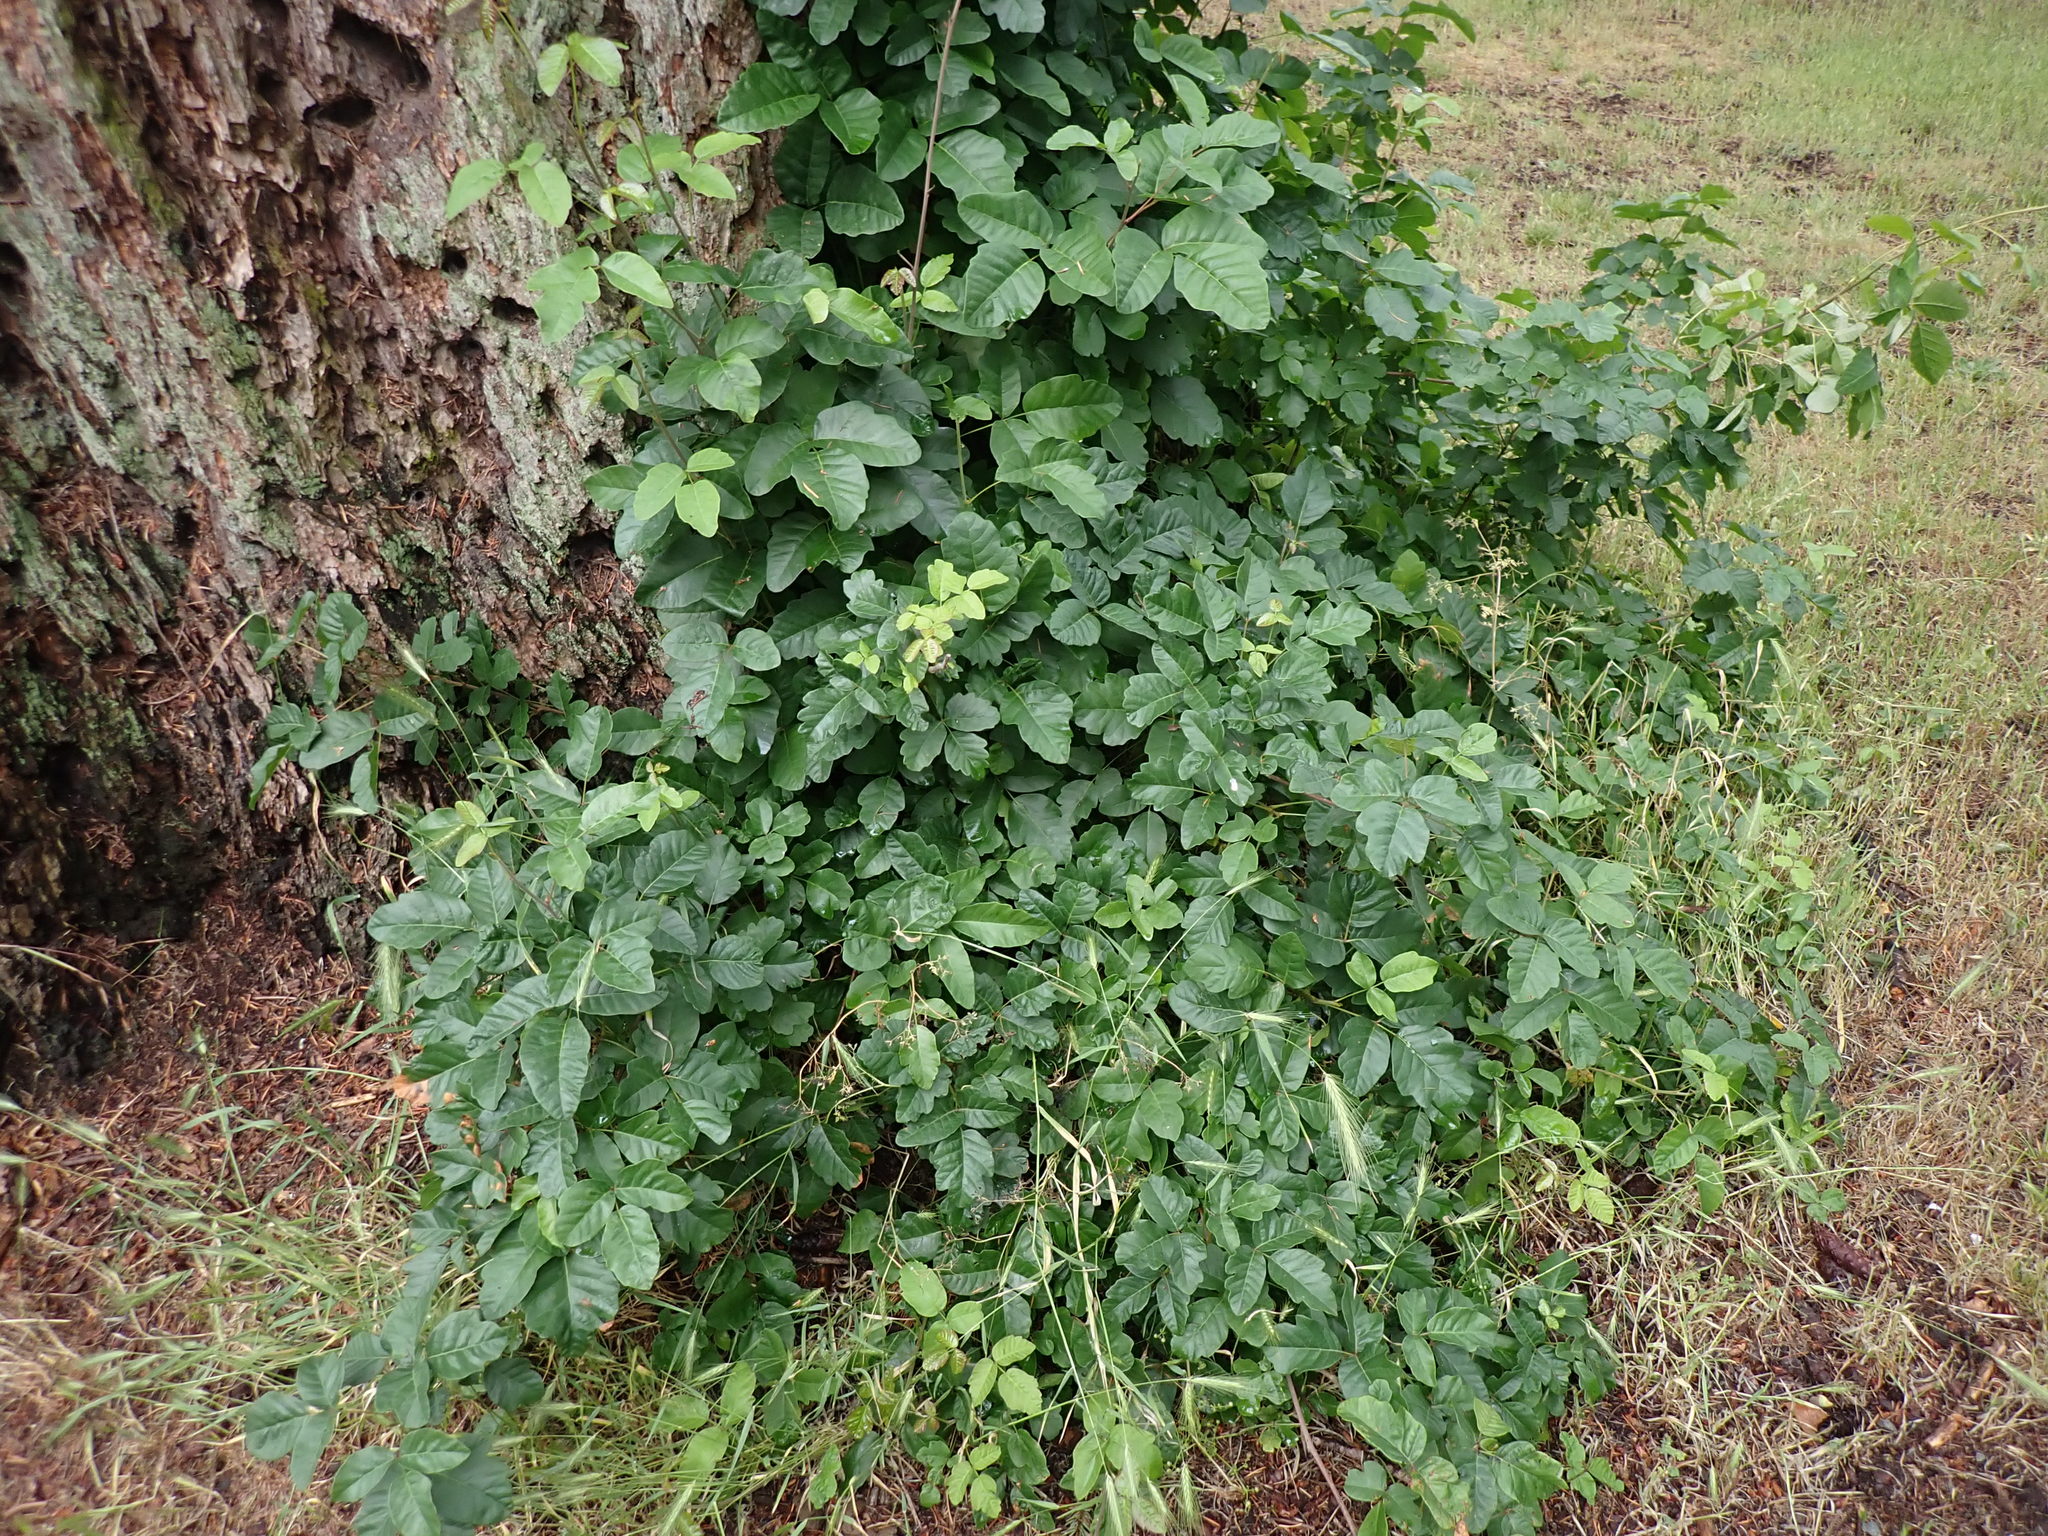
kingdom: Plantae
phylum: Tracheophyta
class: Magnoliopsida
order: Sapindales
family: Anacardiaceae
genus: Toxicodendron
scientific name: Toxicodendron diversilobum
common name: Pacific poison-oak
